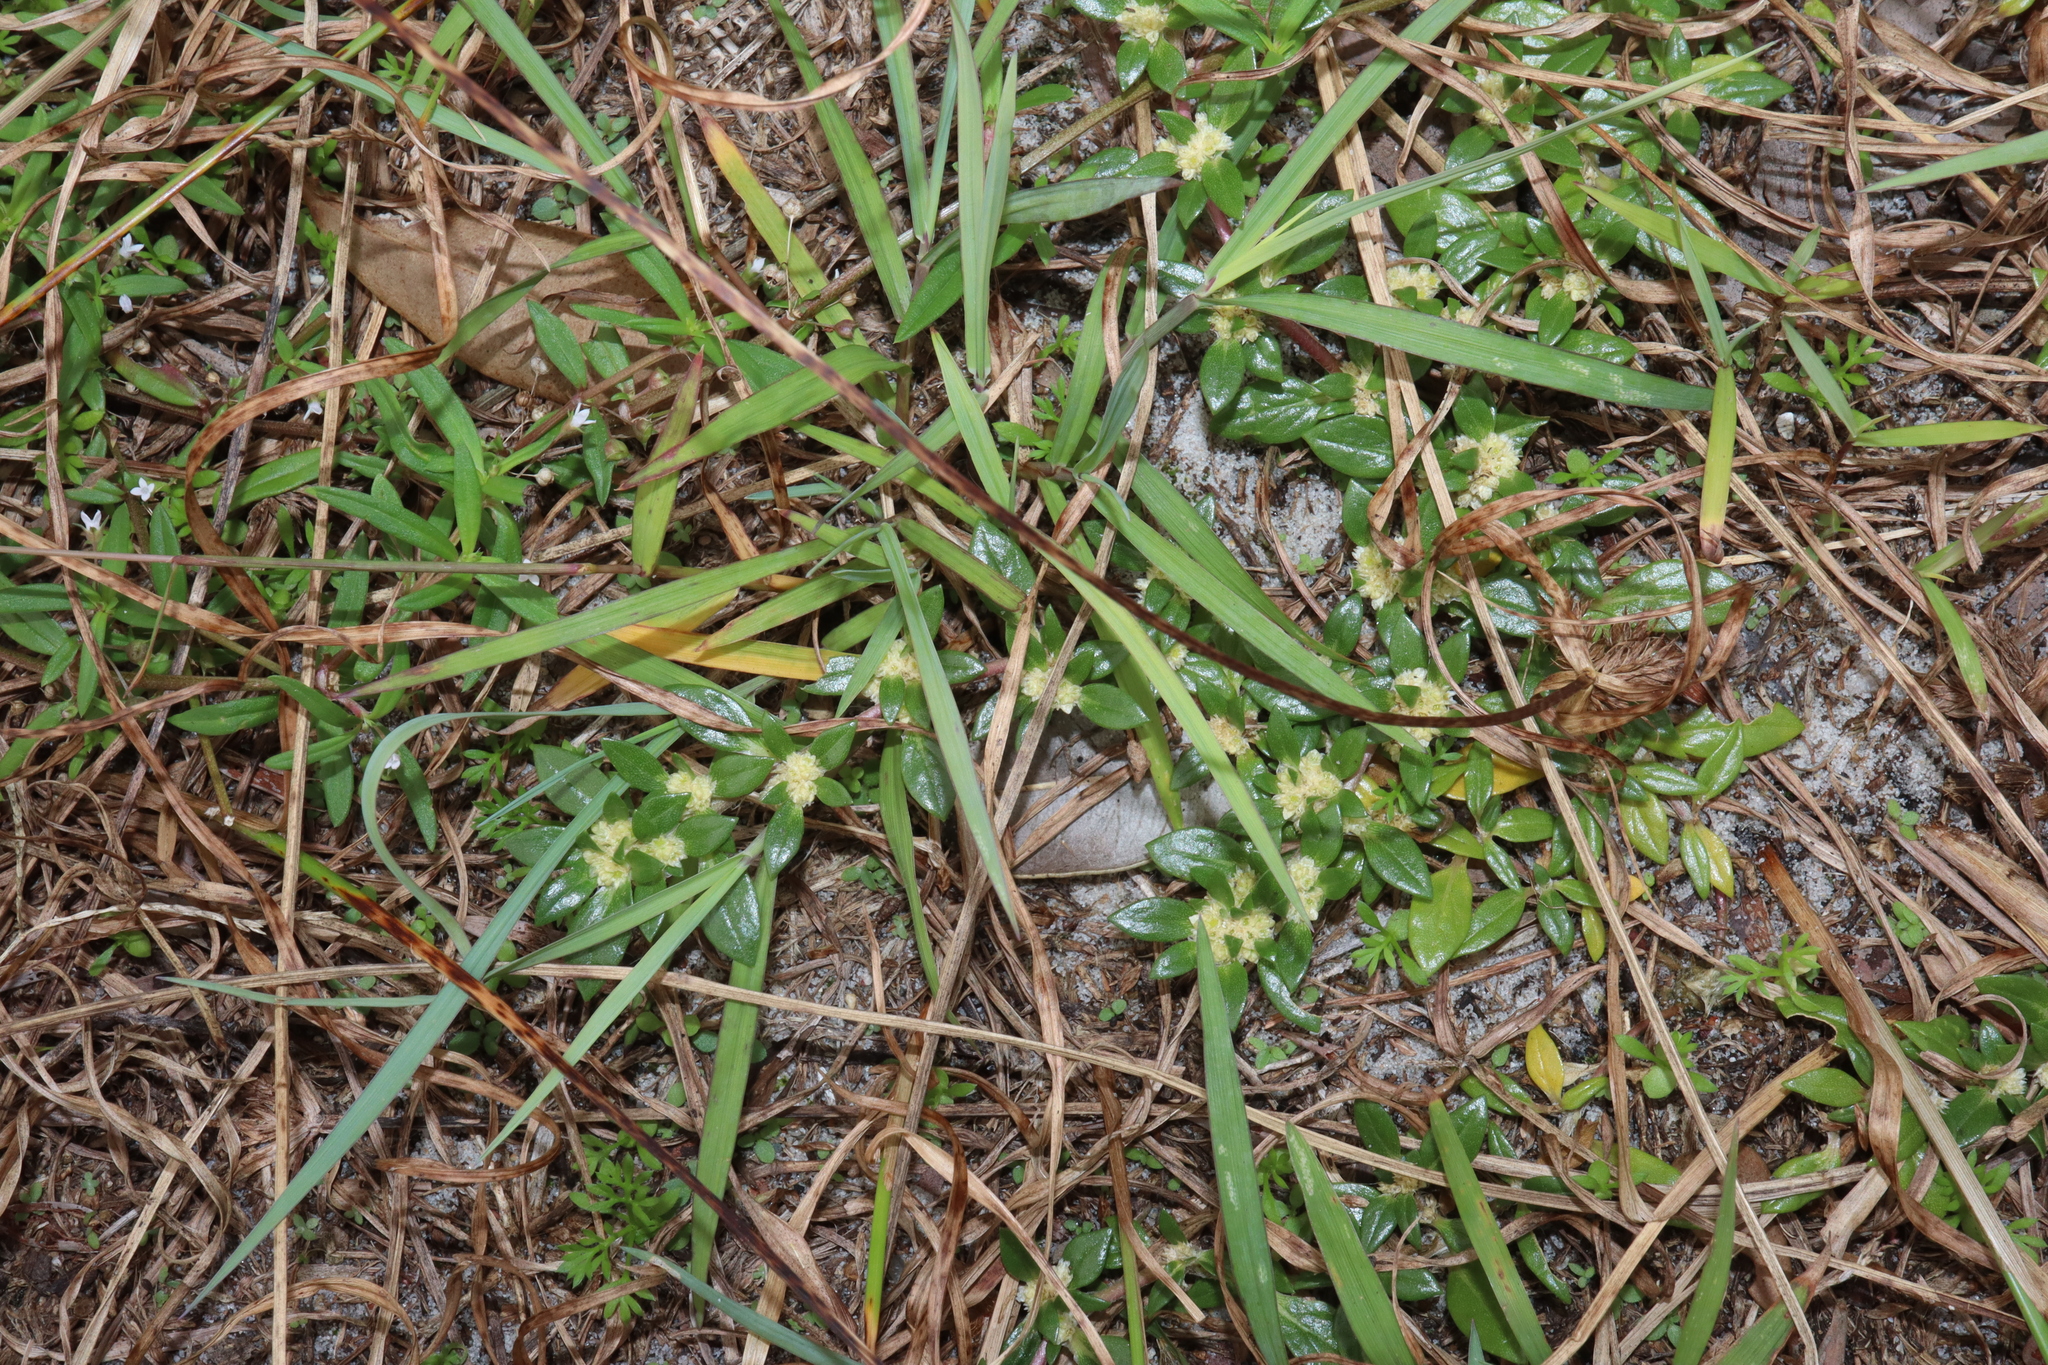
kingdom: Plantae
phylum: Tracheophyta
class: Magnoliopsida
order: Caryophyllales
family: Amaranthaceae
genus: Guilleminea
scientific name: Guilleminea densa
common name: Small matweed
